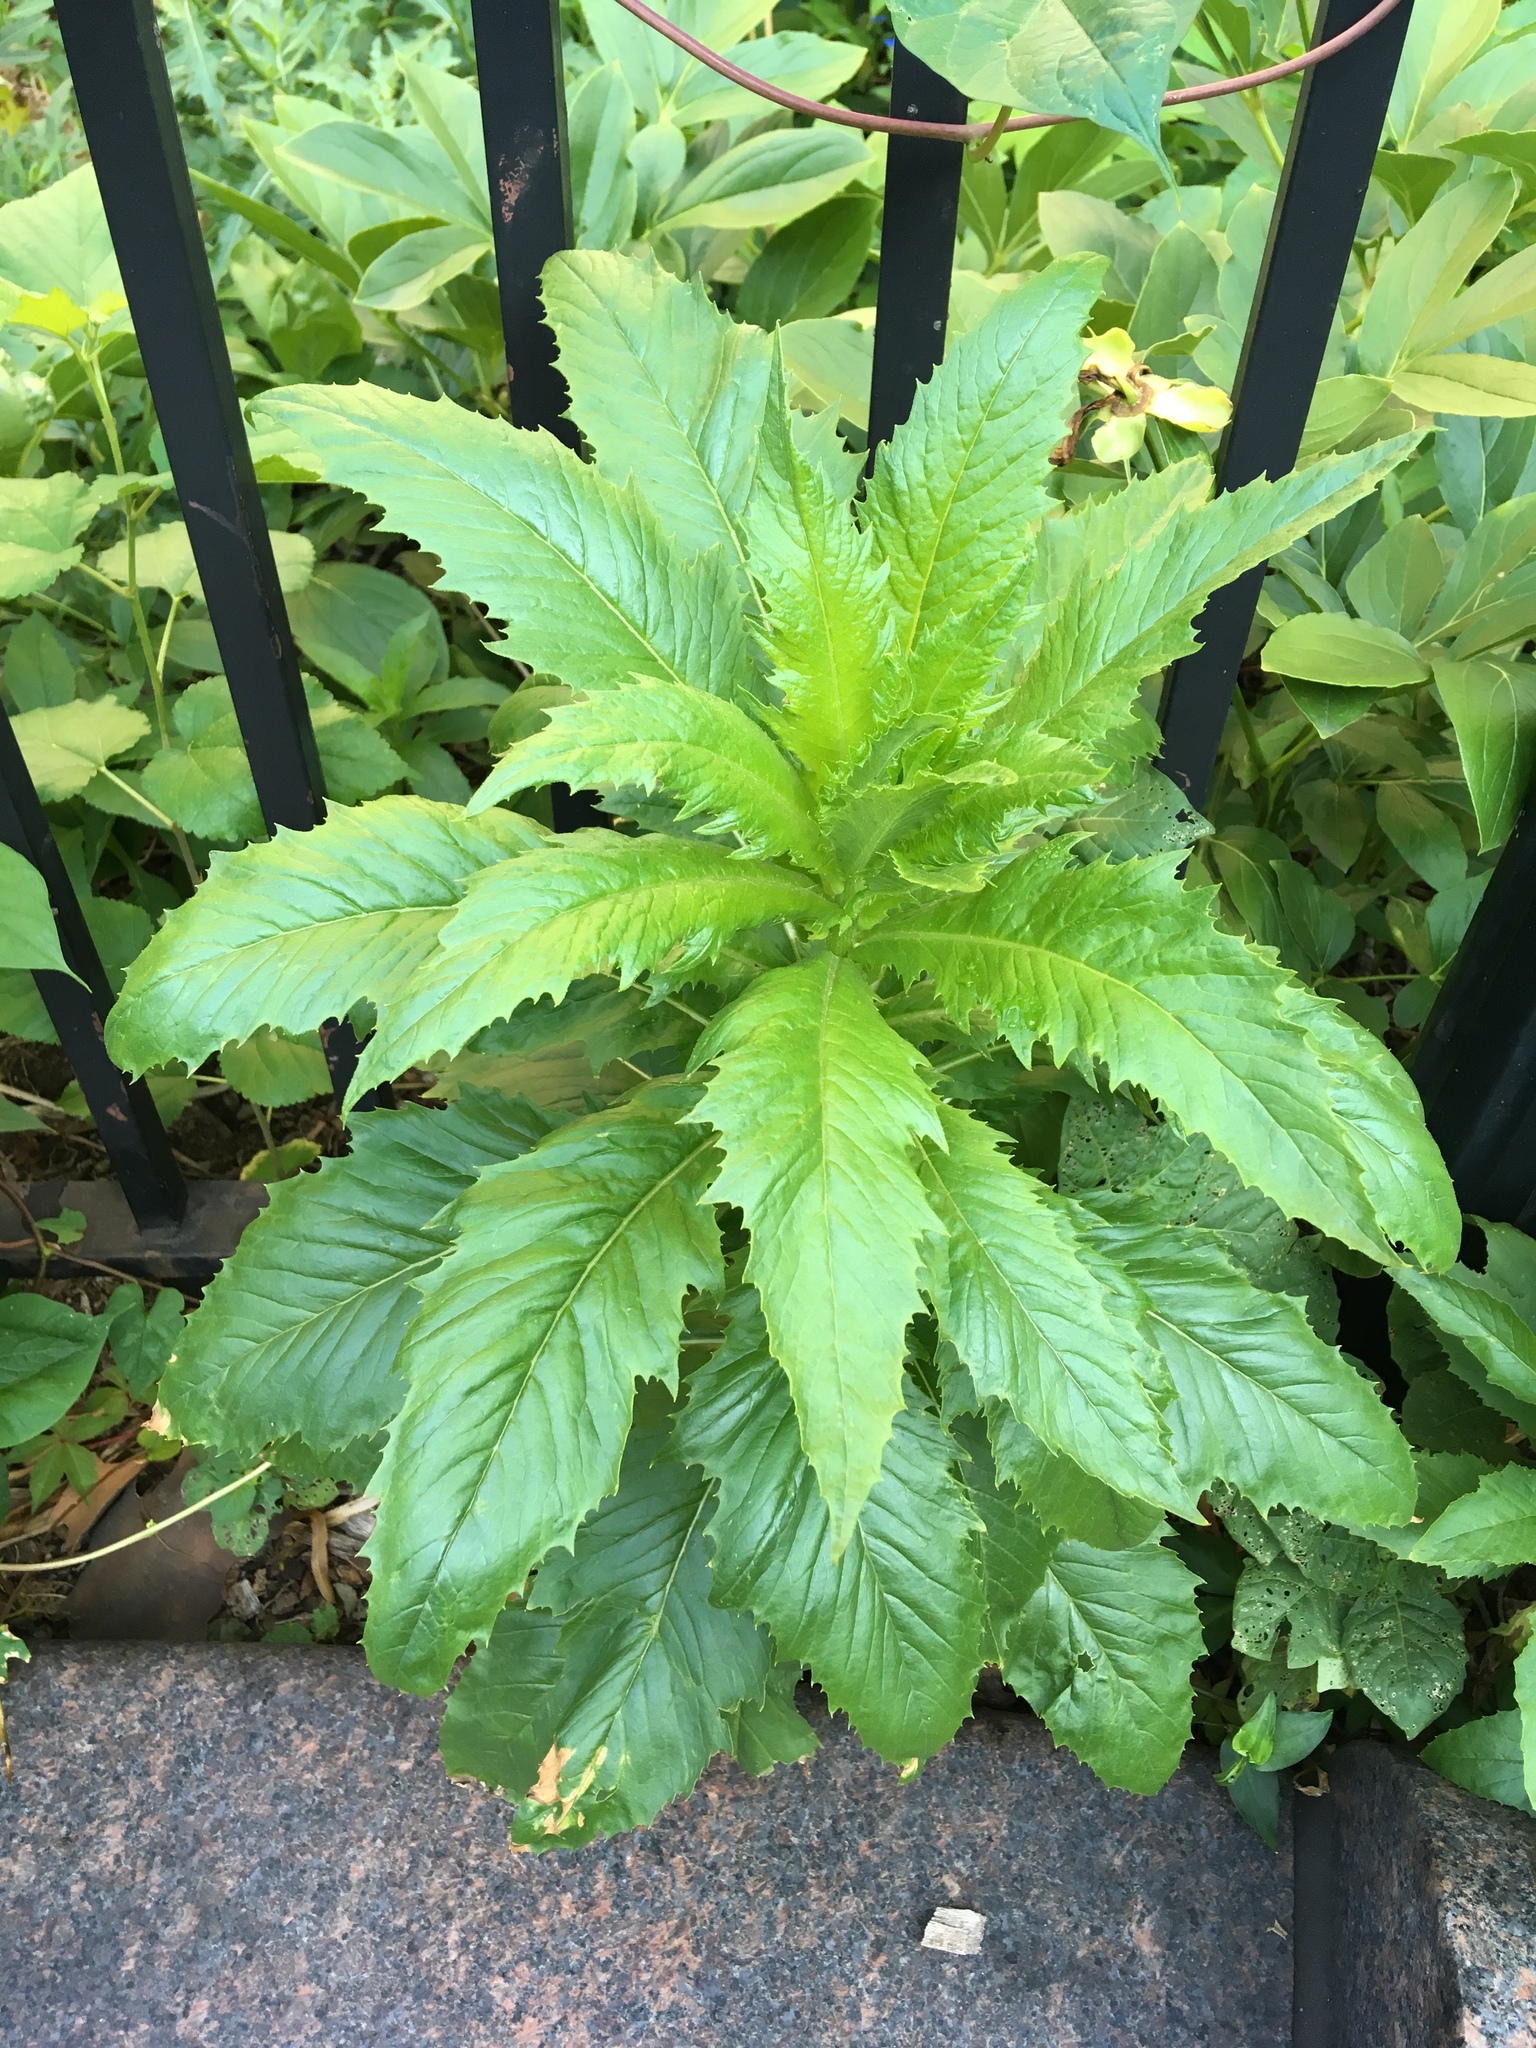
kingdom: Plantae
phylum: Tracheophyta
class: Magnoliopsida
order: Asterales
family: Asteraceae
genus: Erechtites
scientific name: Erechtites hieraciifolius
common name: American burnweed
